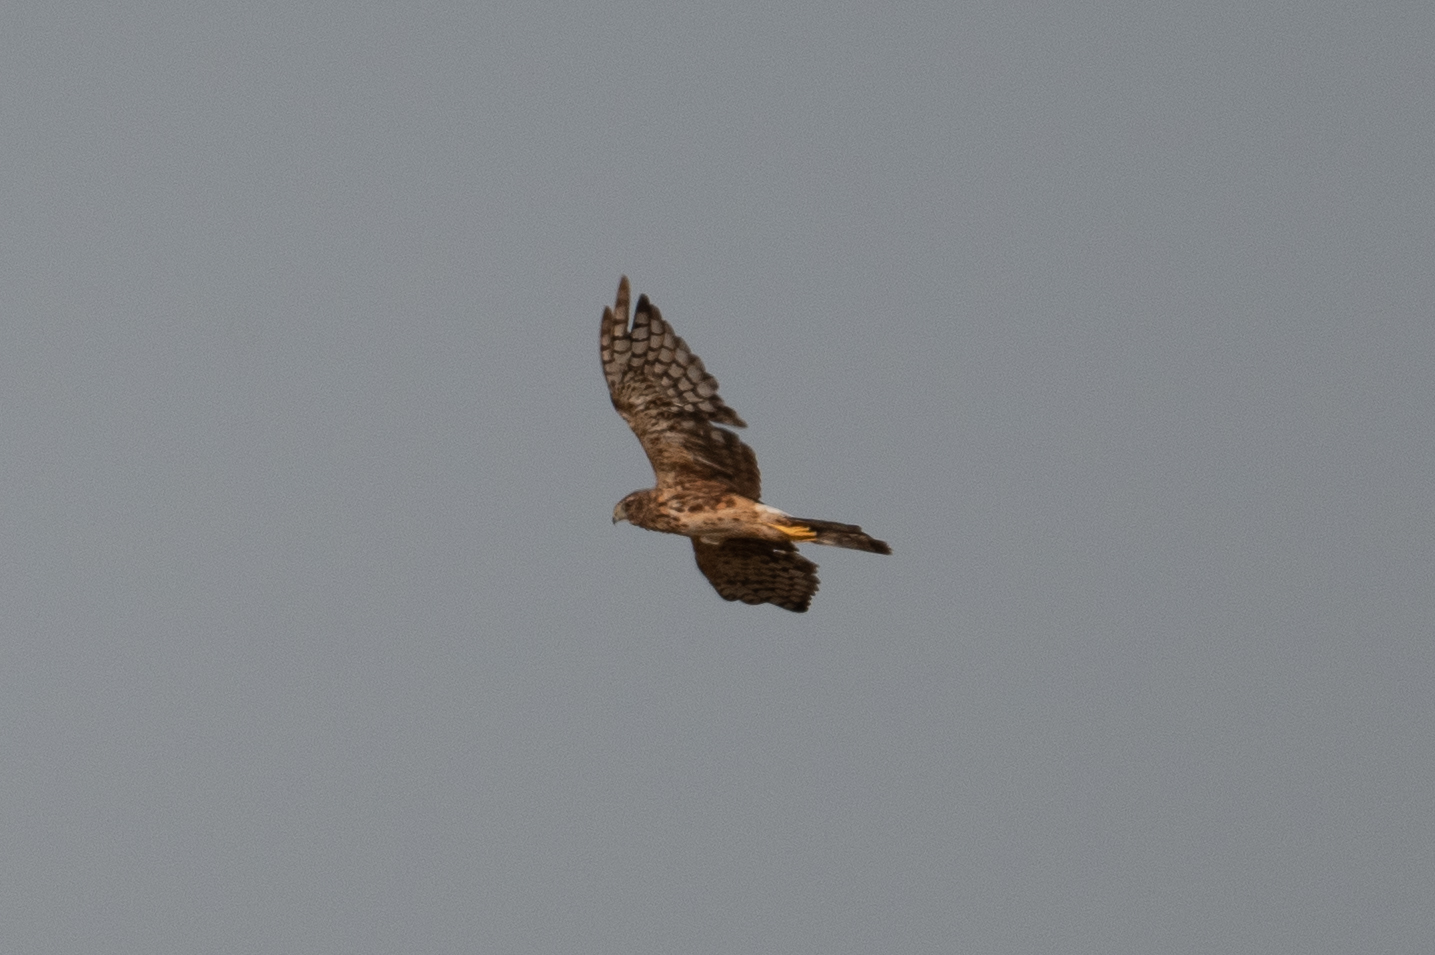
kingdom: Animalia
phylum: Chordata
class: Aves
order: Accipitriformes
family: Accipitridae
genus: Circus
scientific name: Circus cyaneus
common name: Hen harrier
